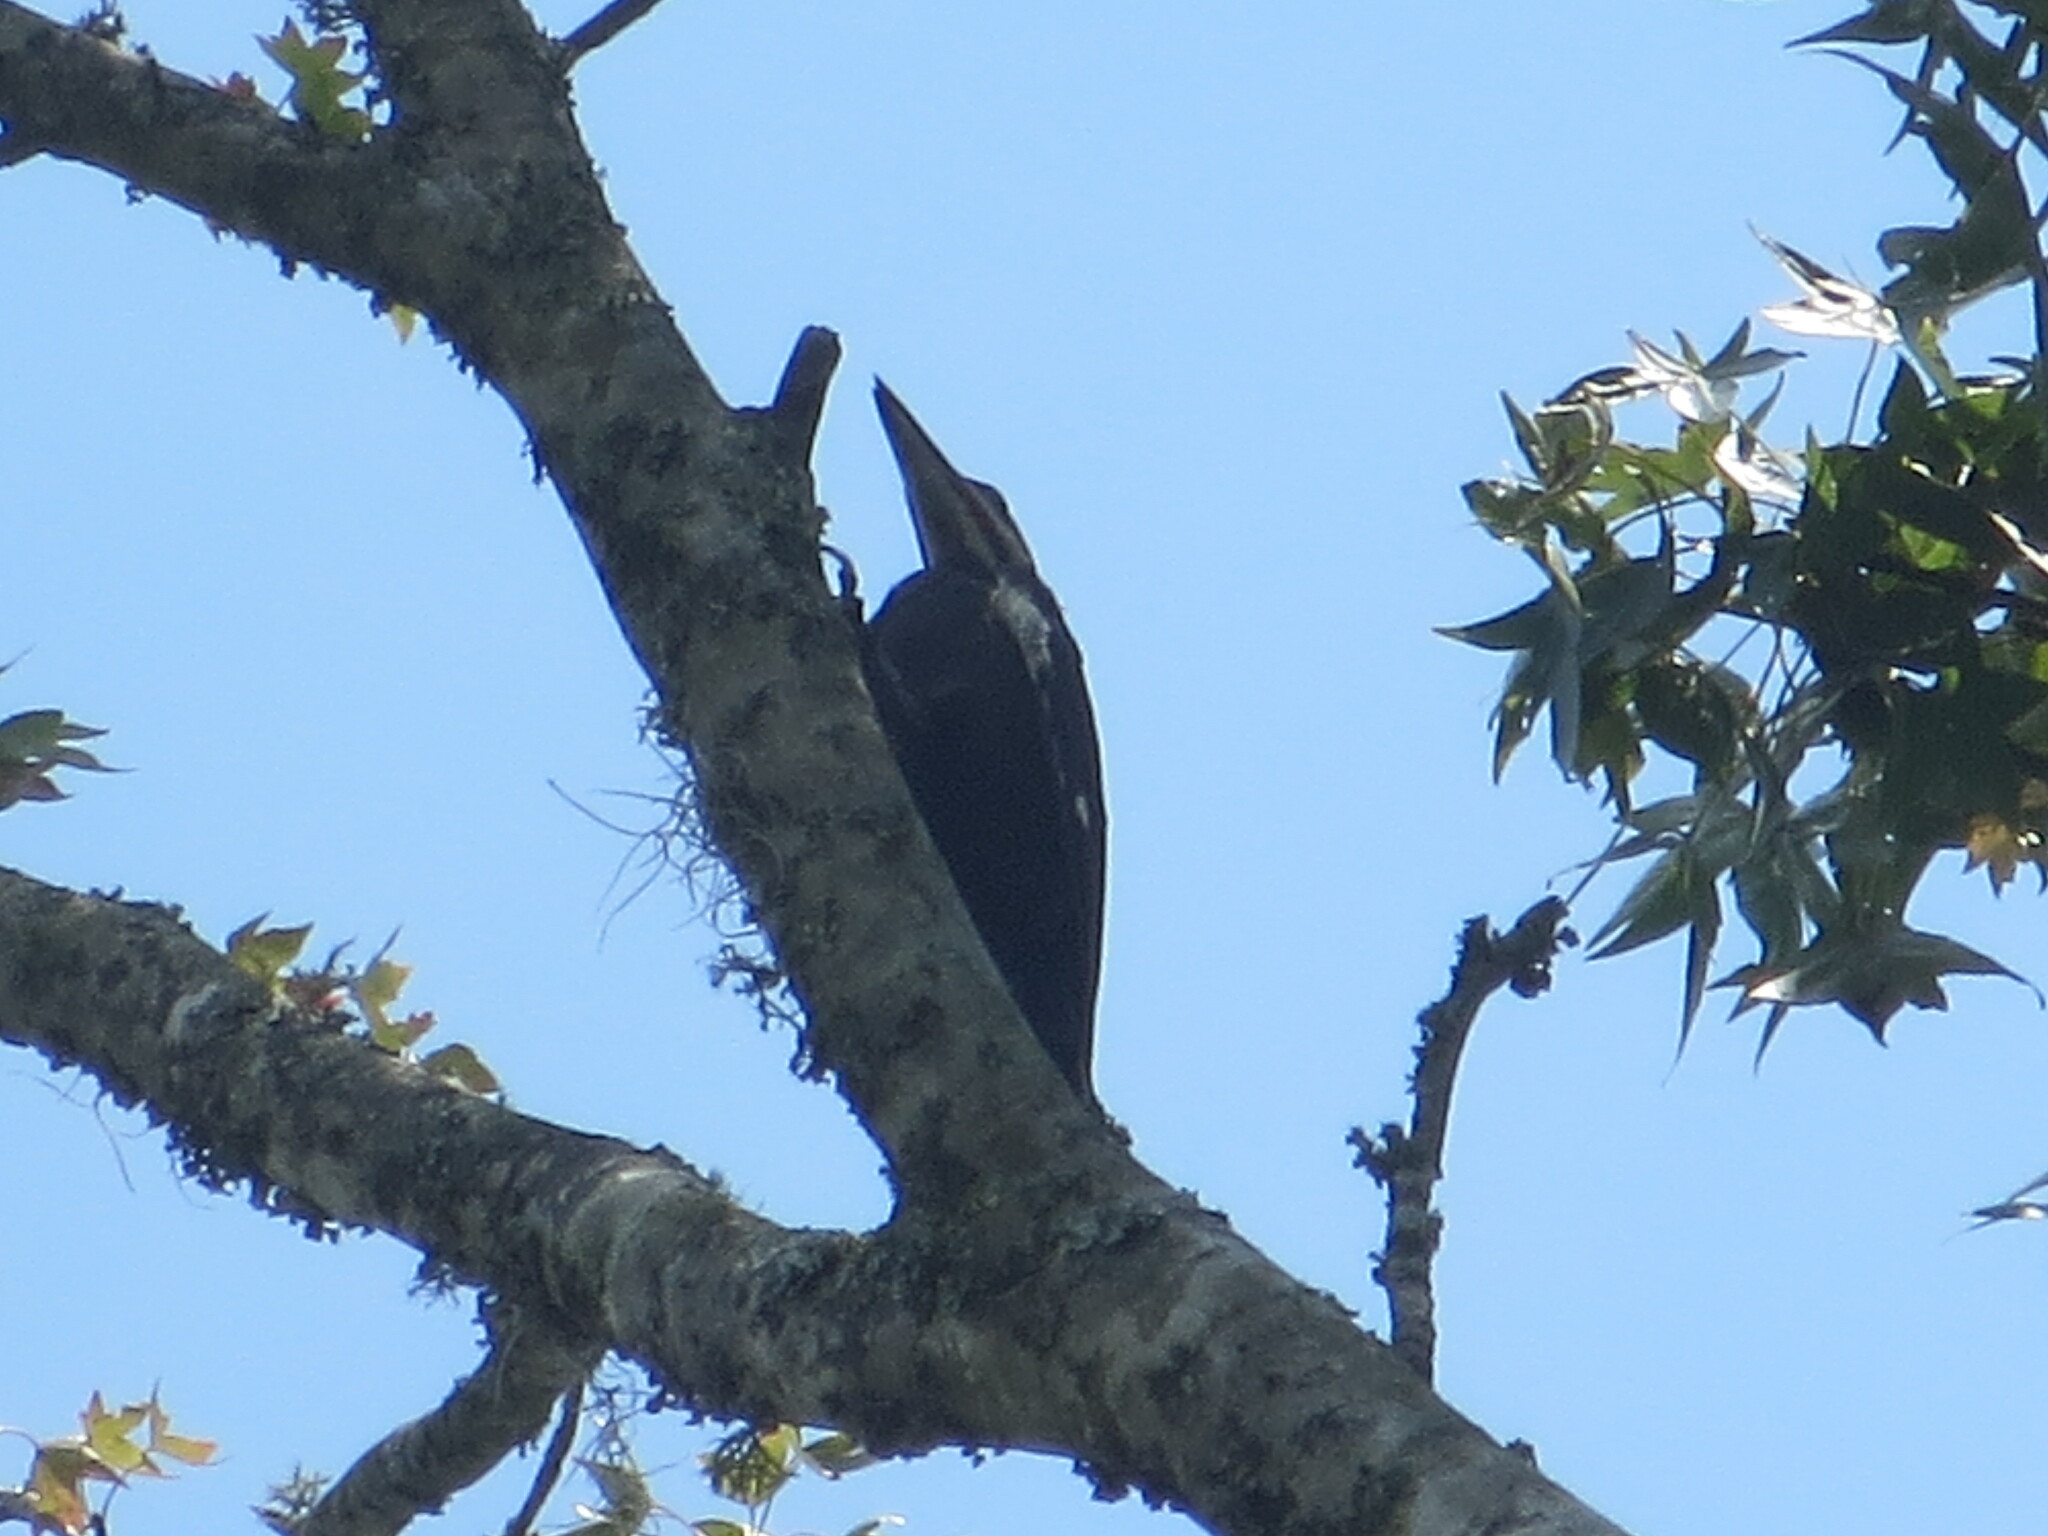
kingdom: Plantae
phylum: Tracheophyta
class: Liliopsida
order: Poales
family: Bromeliaceae
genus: Tillandsia
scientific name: Tillandsia usneoides
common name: Spanish moss
